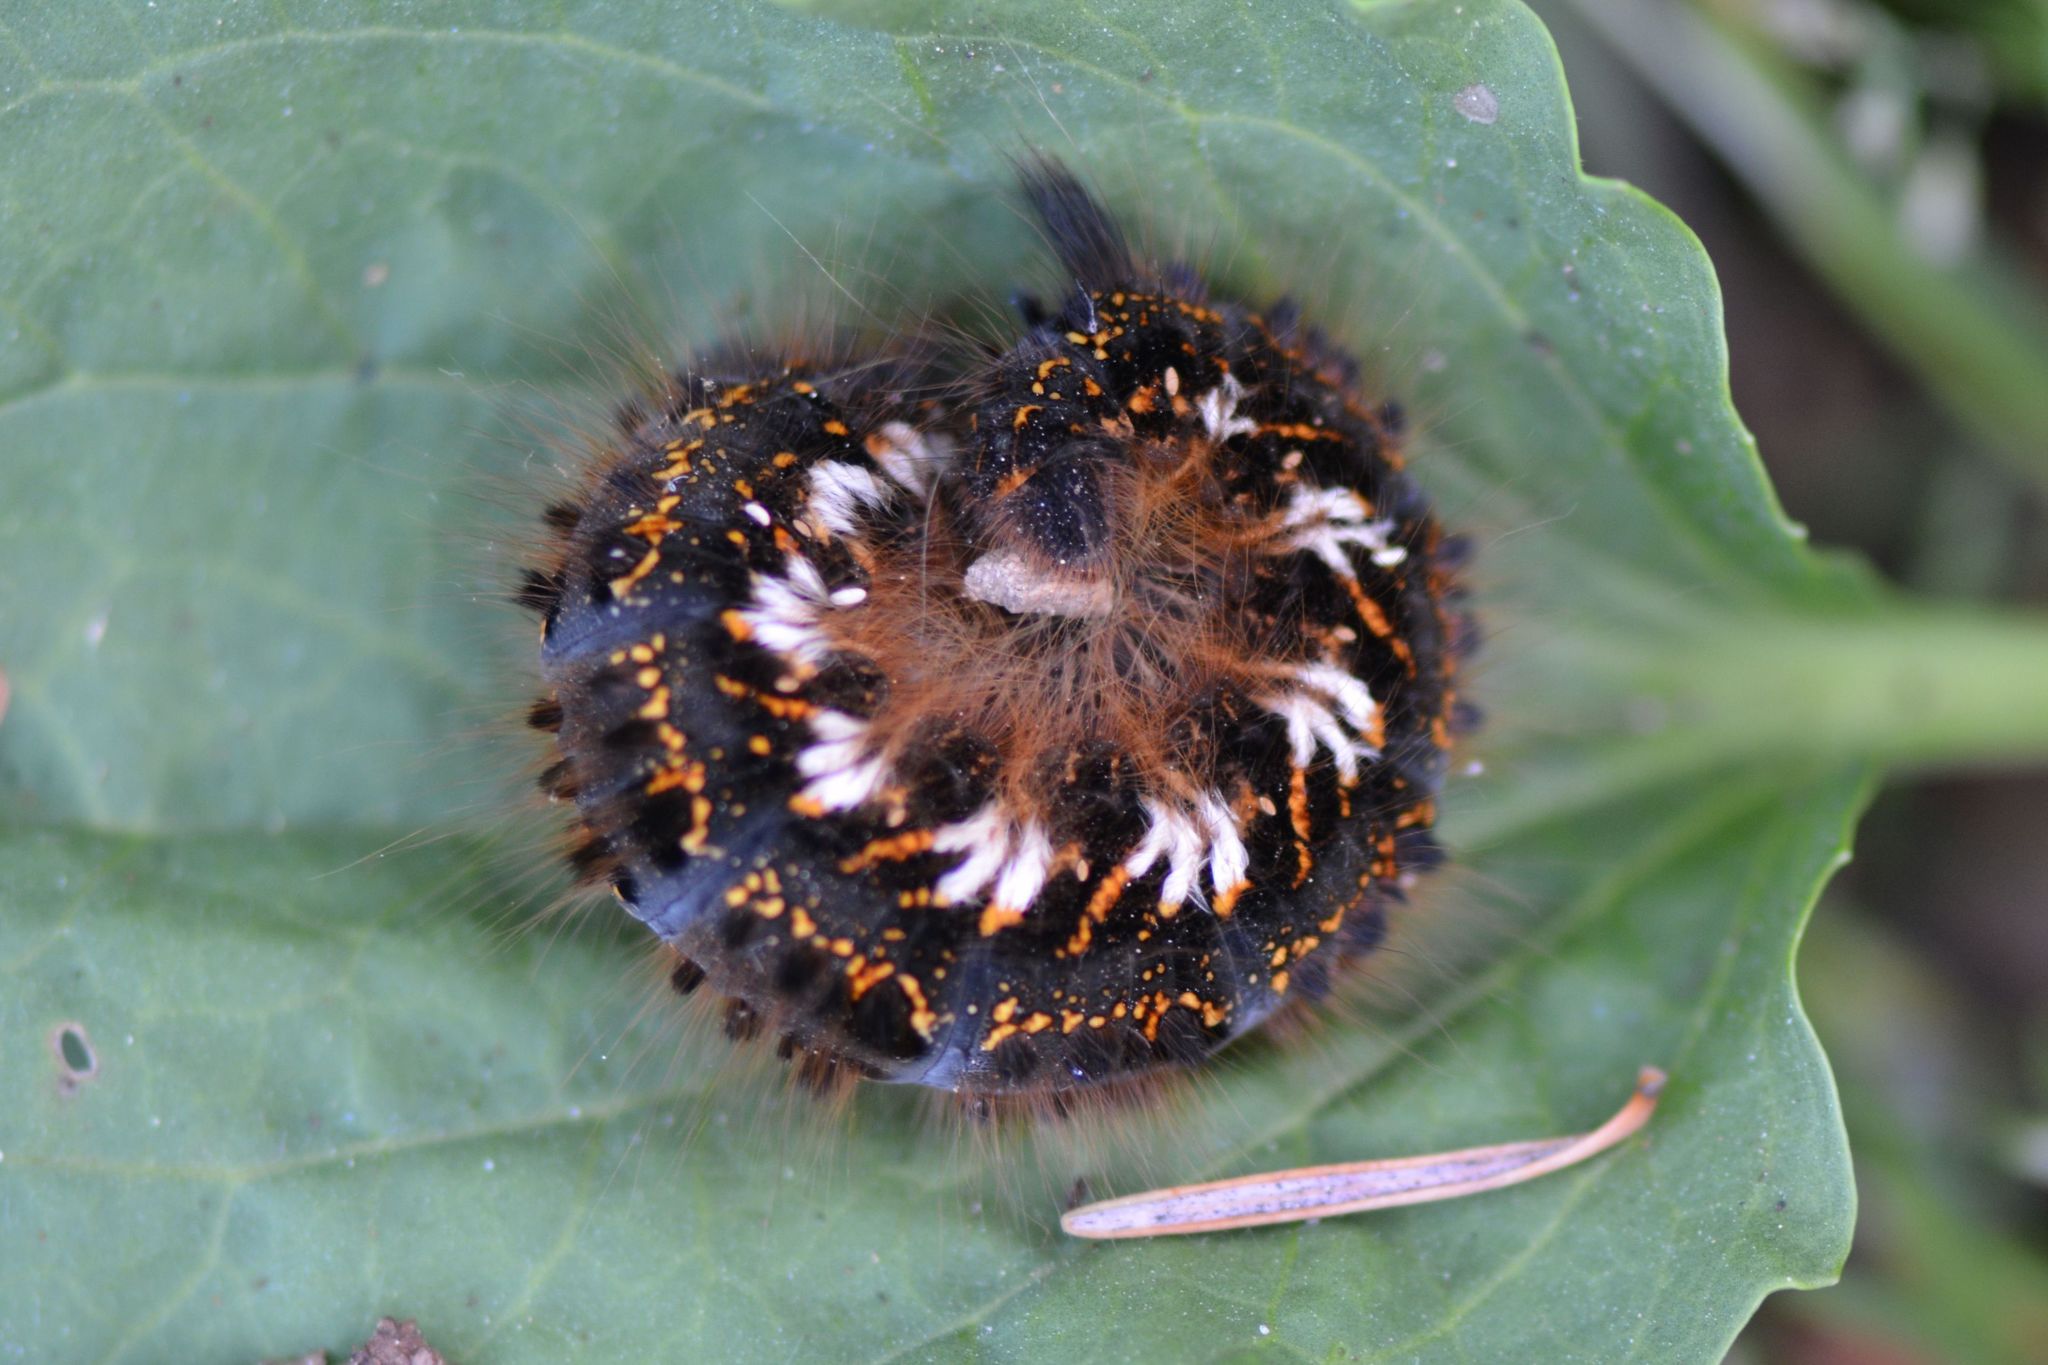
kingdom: Animalia
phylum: Arthropoda
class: Insecta
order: Lepidoptera
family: Lasiocampidae
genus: Euthrix
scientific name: Euthrix potatoria
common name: Drinker
